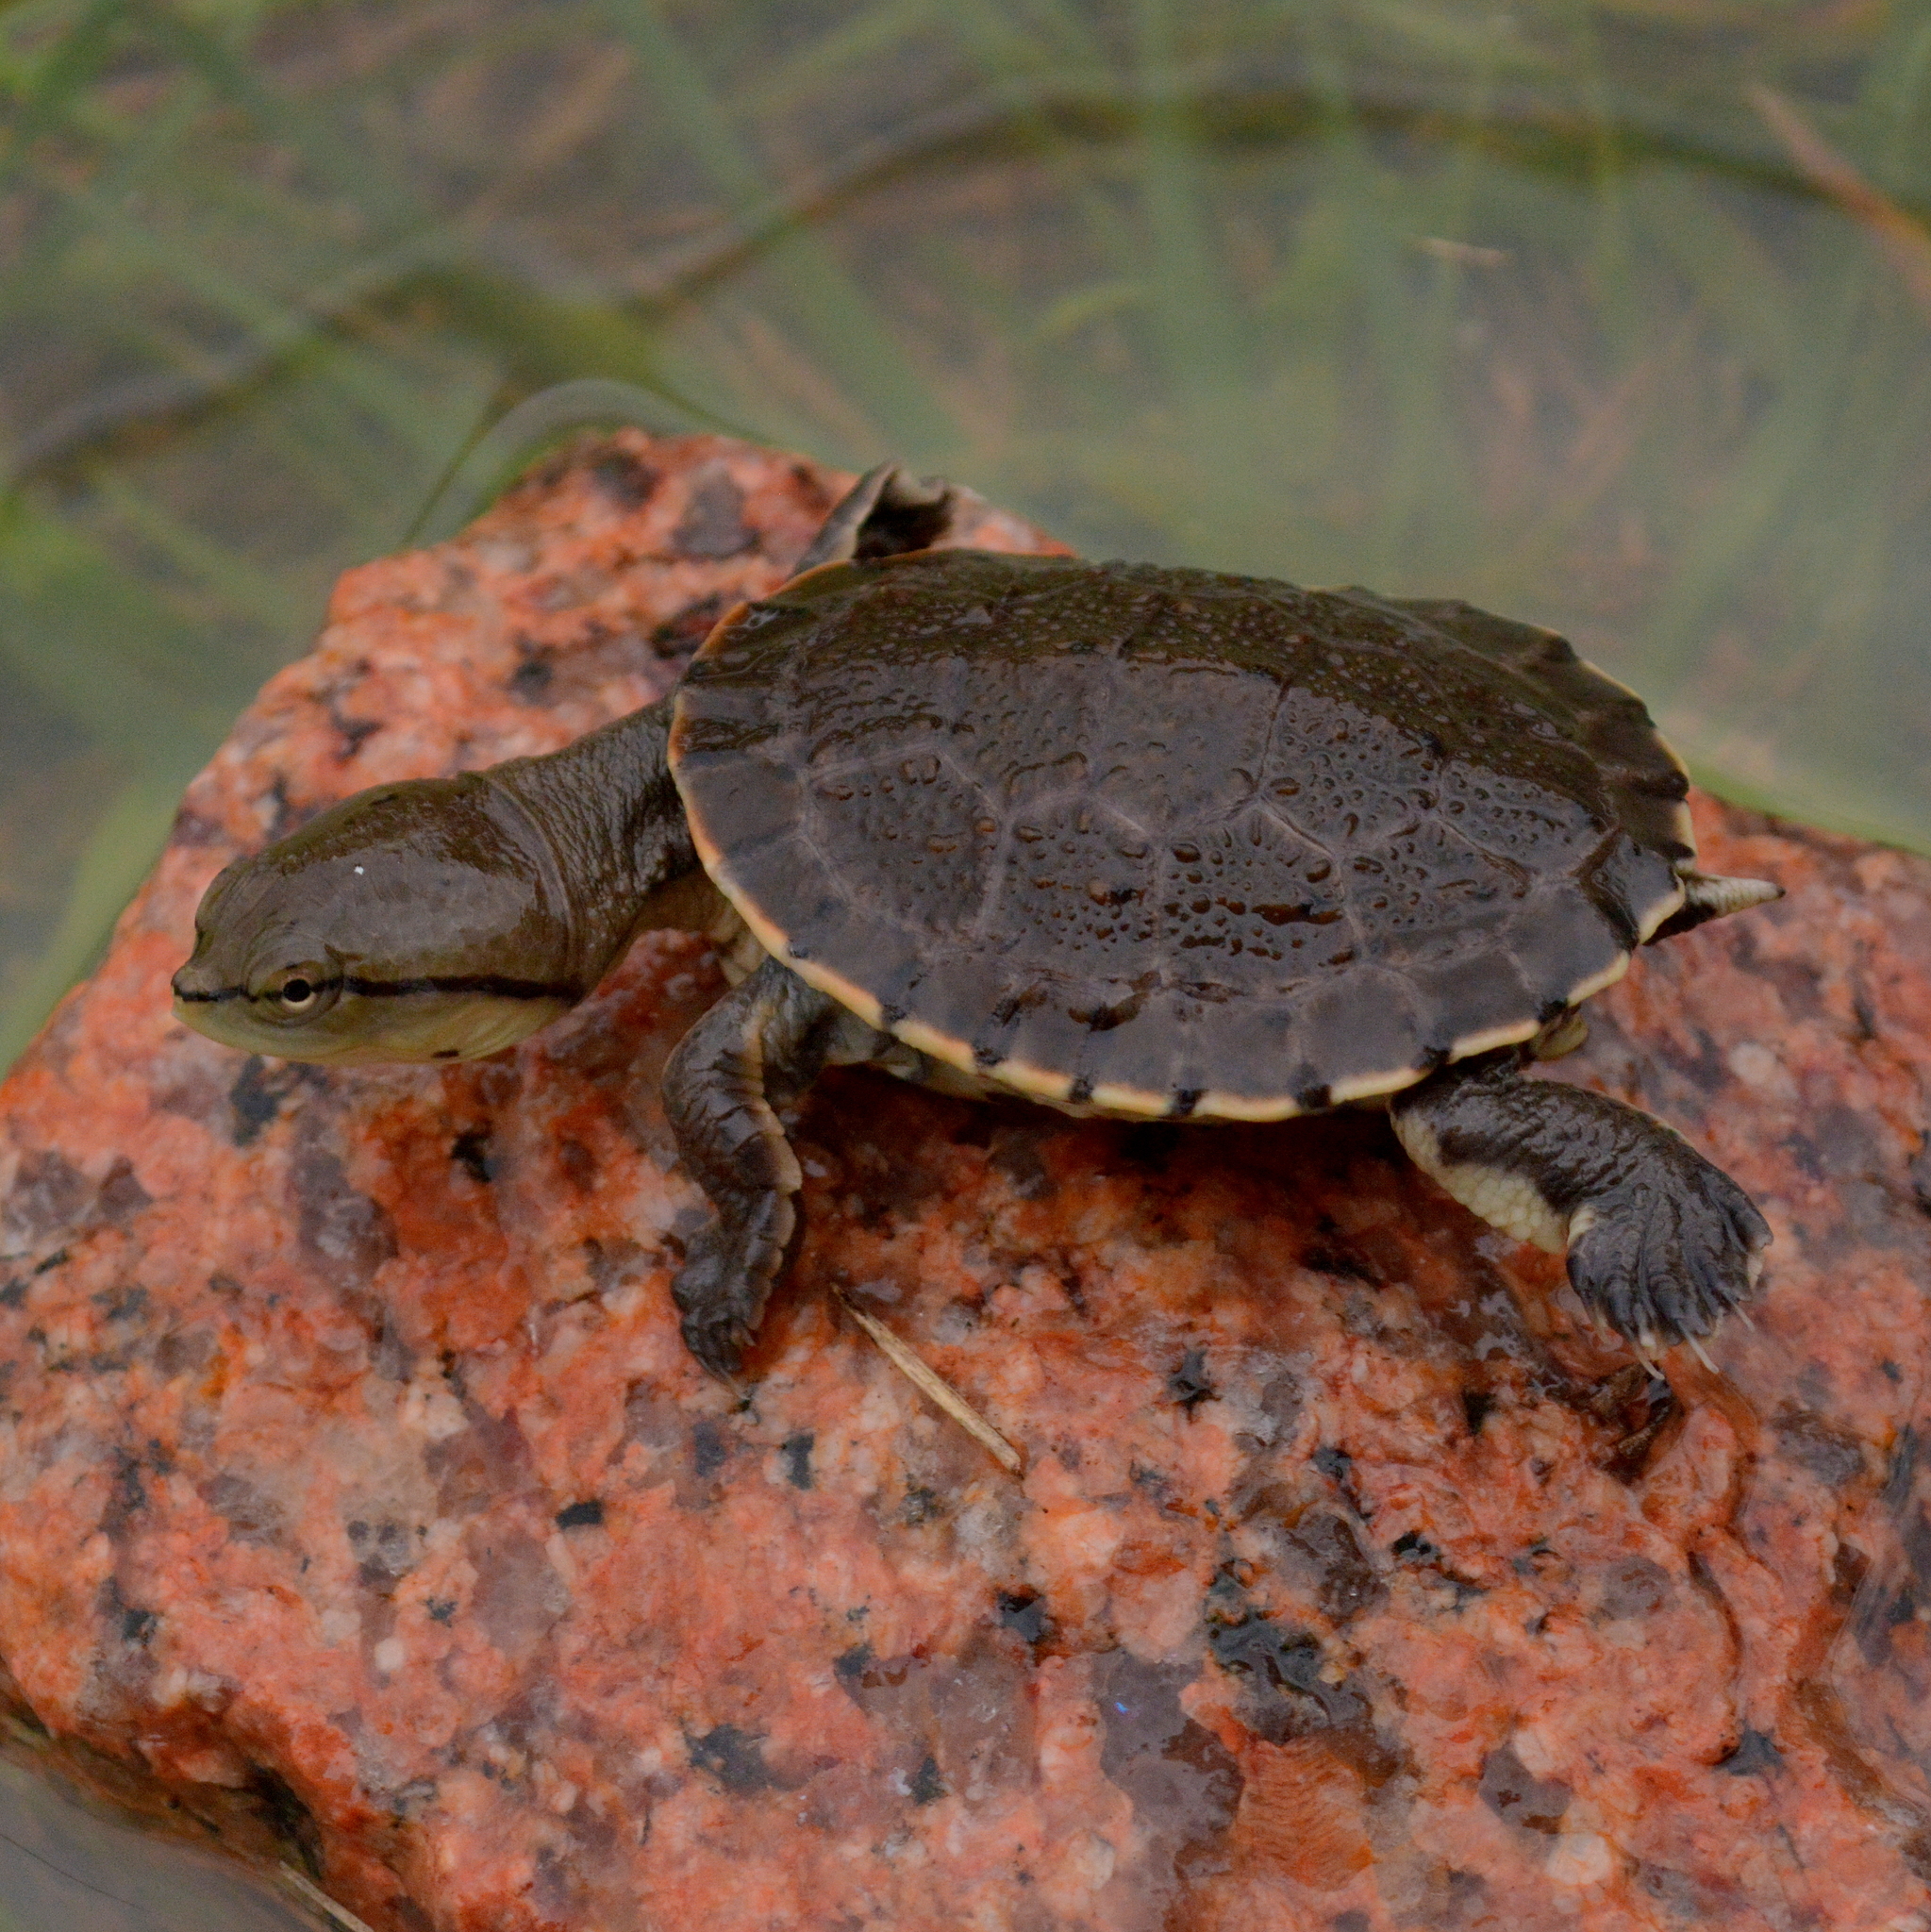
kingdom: Animalia
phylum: Chordata
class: Testudines
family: Chelidae
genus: Phrynops
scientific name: Phrynops hilarii
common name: Side-necked turtle of saint hillaire
